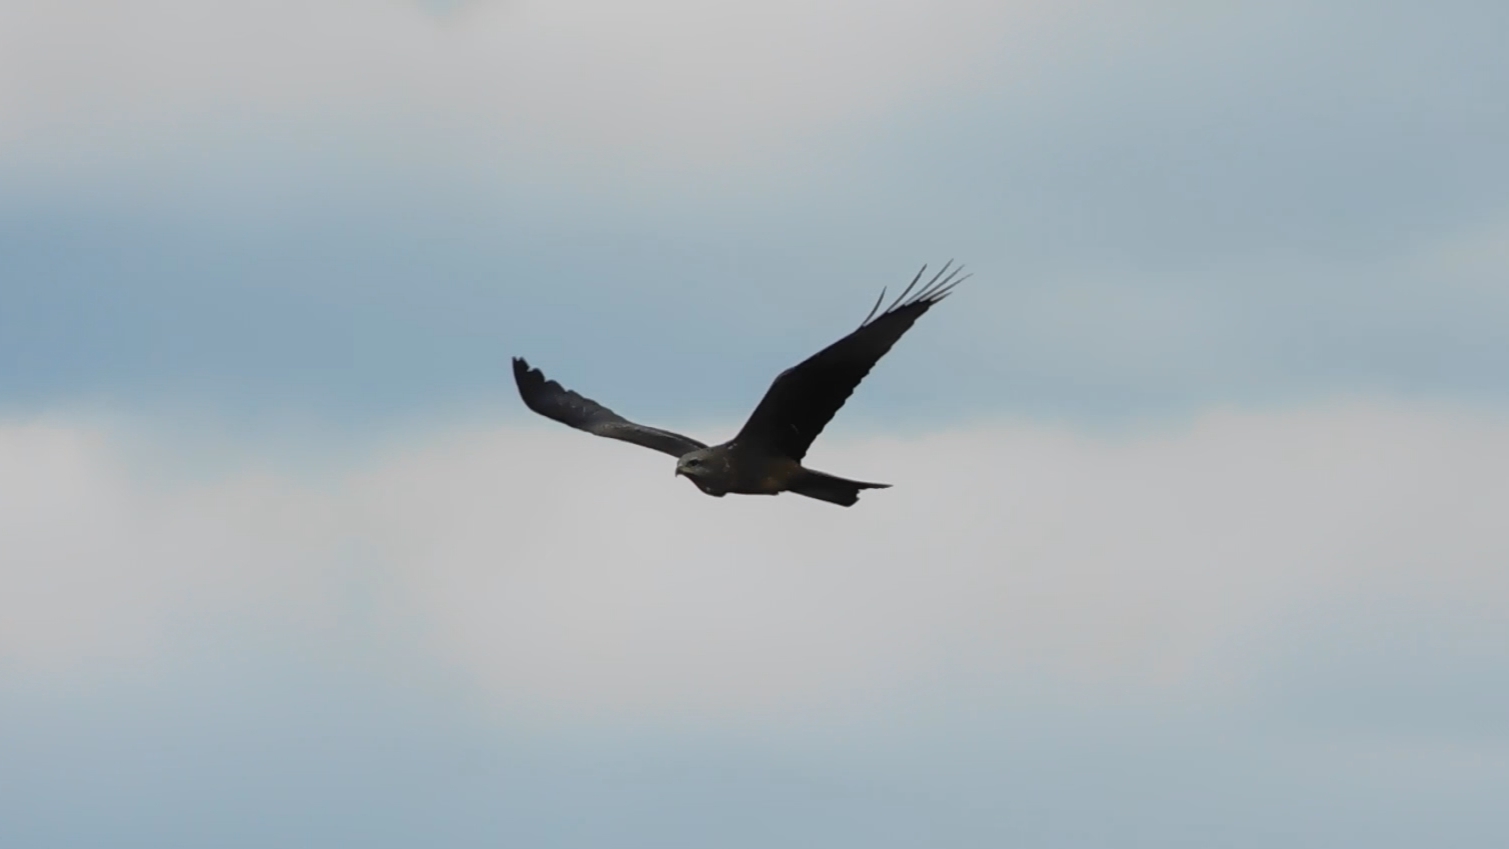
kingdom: Animalia
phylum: Chordata
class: Aves
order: Accipitriformes
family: Accipitridae
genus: Milvus
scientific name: Milvus migrans
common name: Black kite
